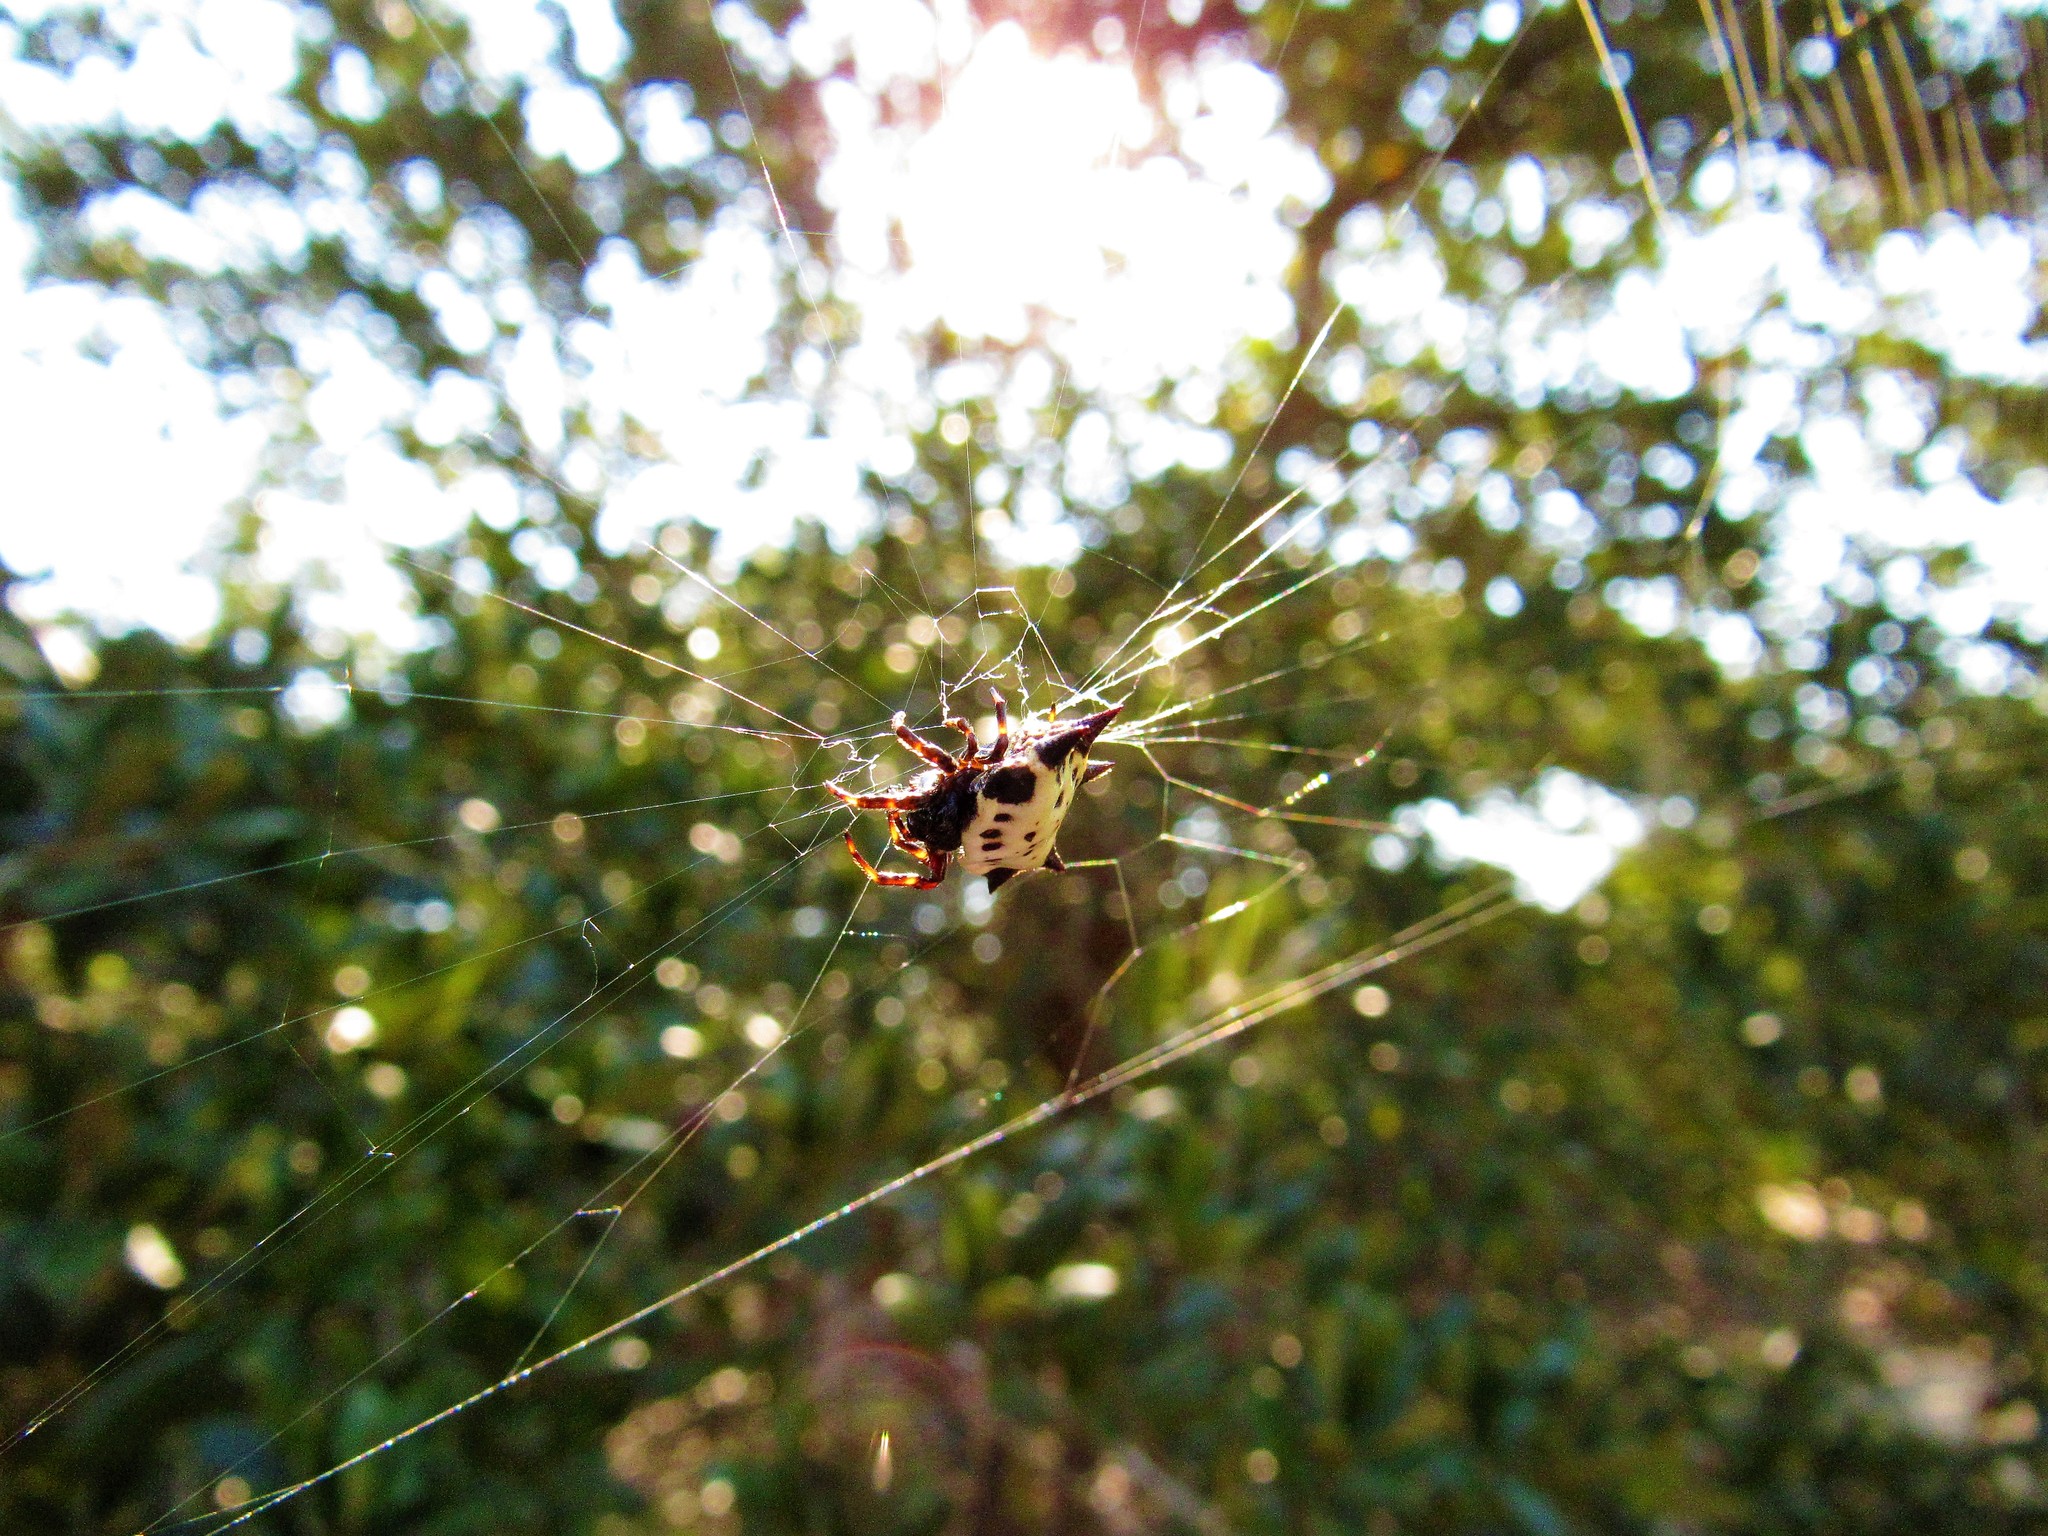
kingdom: Animalia
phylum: Arthropoda
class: Arachnida
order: Araneae
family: Araneidae
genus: Gasteracantha
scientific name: Gasteracantha cancriformis
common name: Orb weavers
